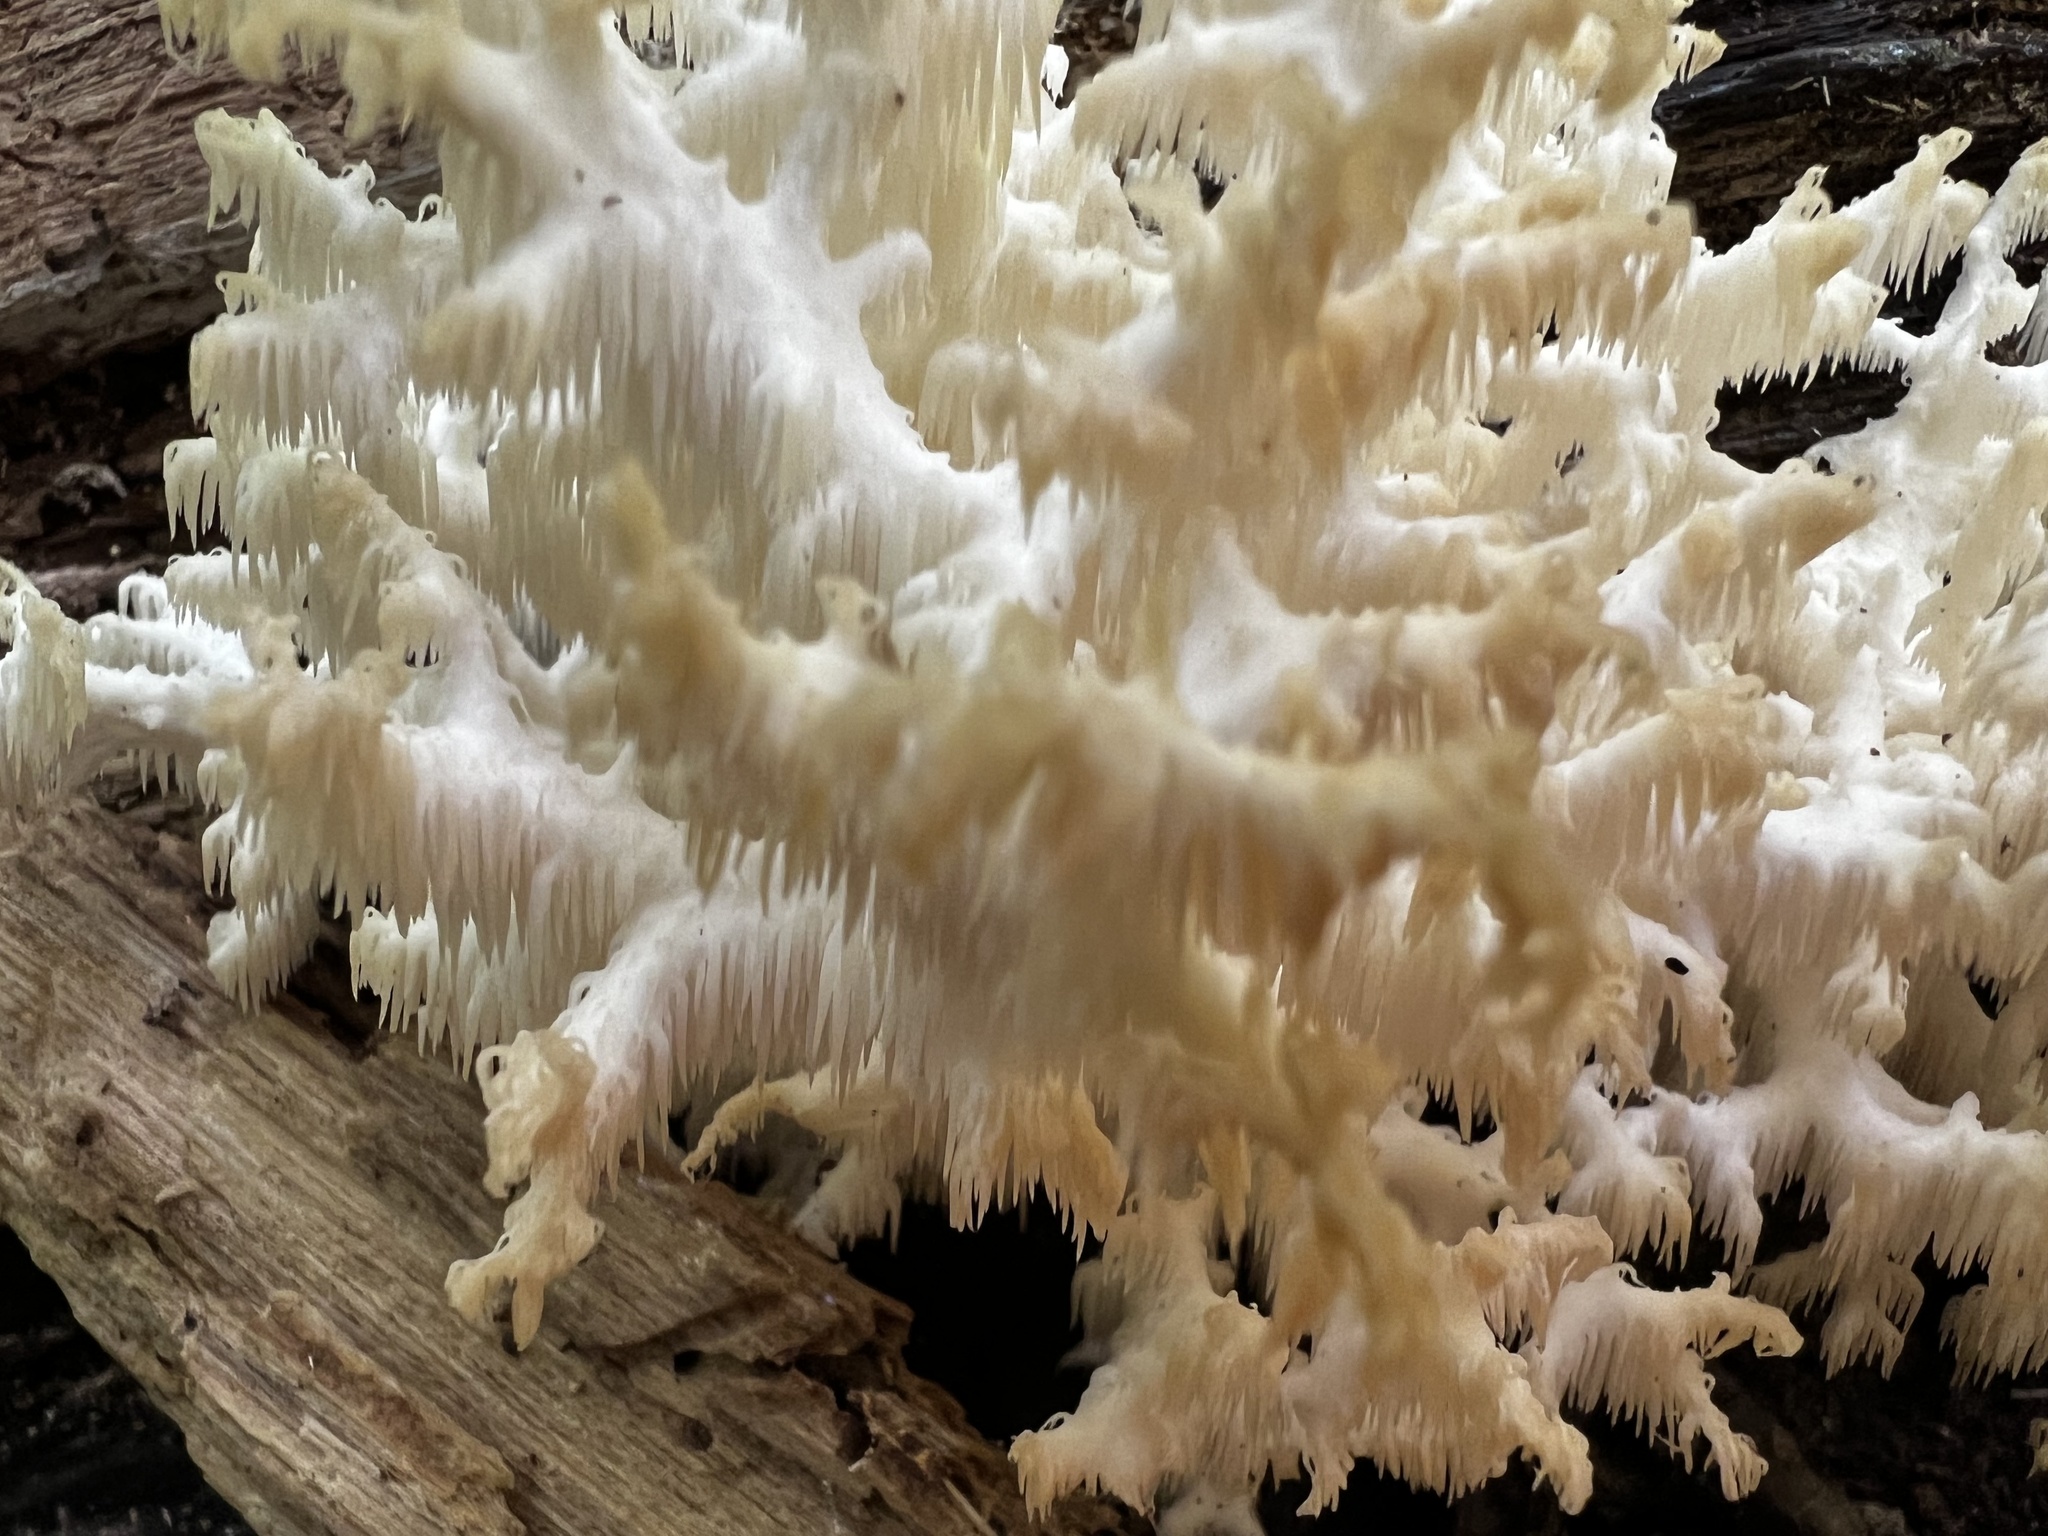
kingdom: Fungi
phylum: Basidiomycota
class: Agaricomycetes
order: Russulales
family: Hericiaceae
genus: Hericium
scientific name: Hericium coralloides
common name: Coral tooth
